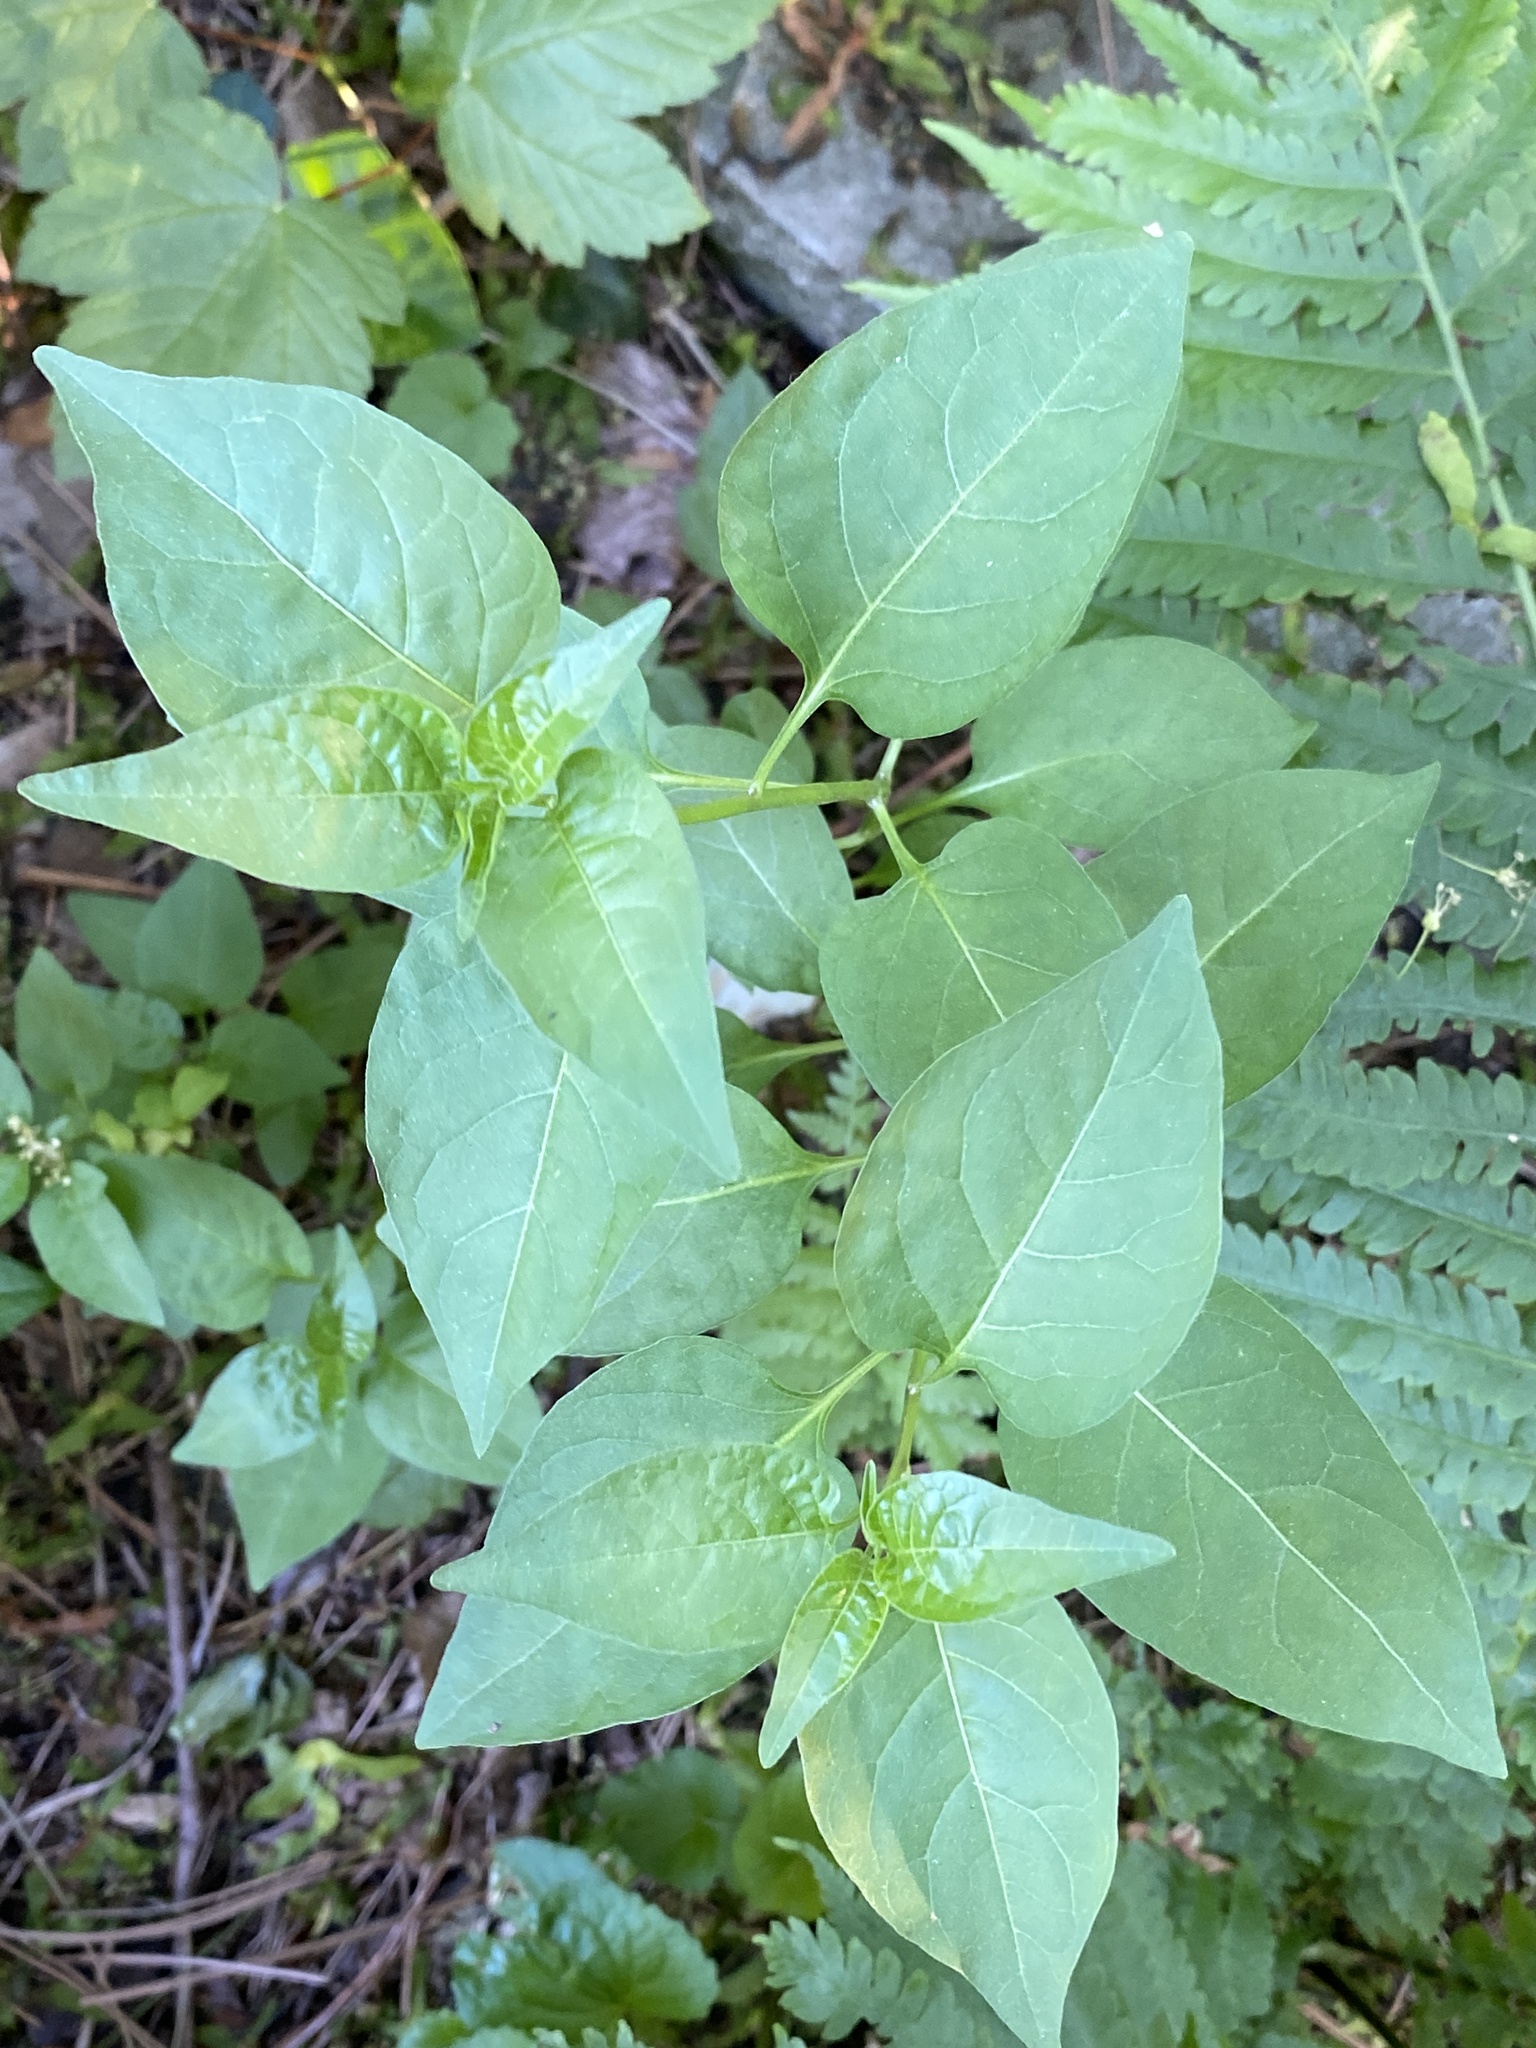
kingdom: Plantae
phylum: Tracheophyta
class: Magnoliopsida
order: Solanales
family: Solanaceae
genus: Solanum
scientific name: Solanum dulcamara
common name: Climbing nightshade
